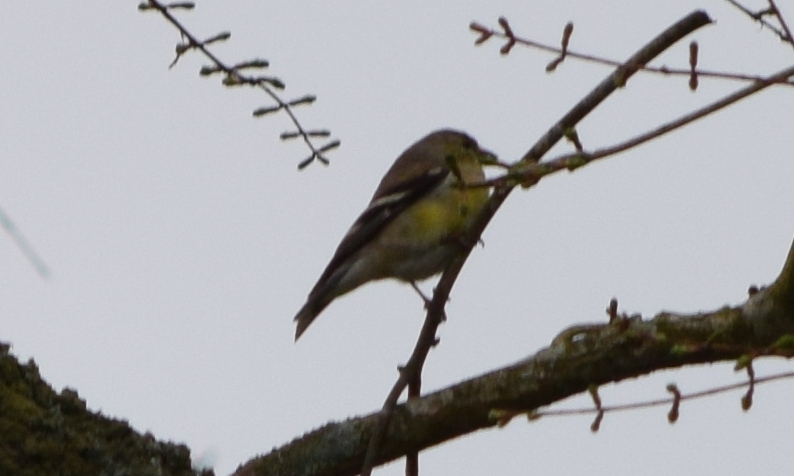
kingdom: Animalia
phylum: Chordata
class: Aves
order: Passeriformes
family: Fringillidae
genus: Spinus
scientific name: Spinus tristis
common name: American goldfinch
